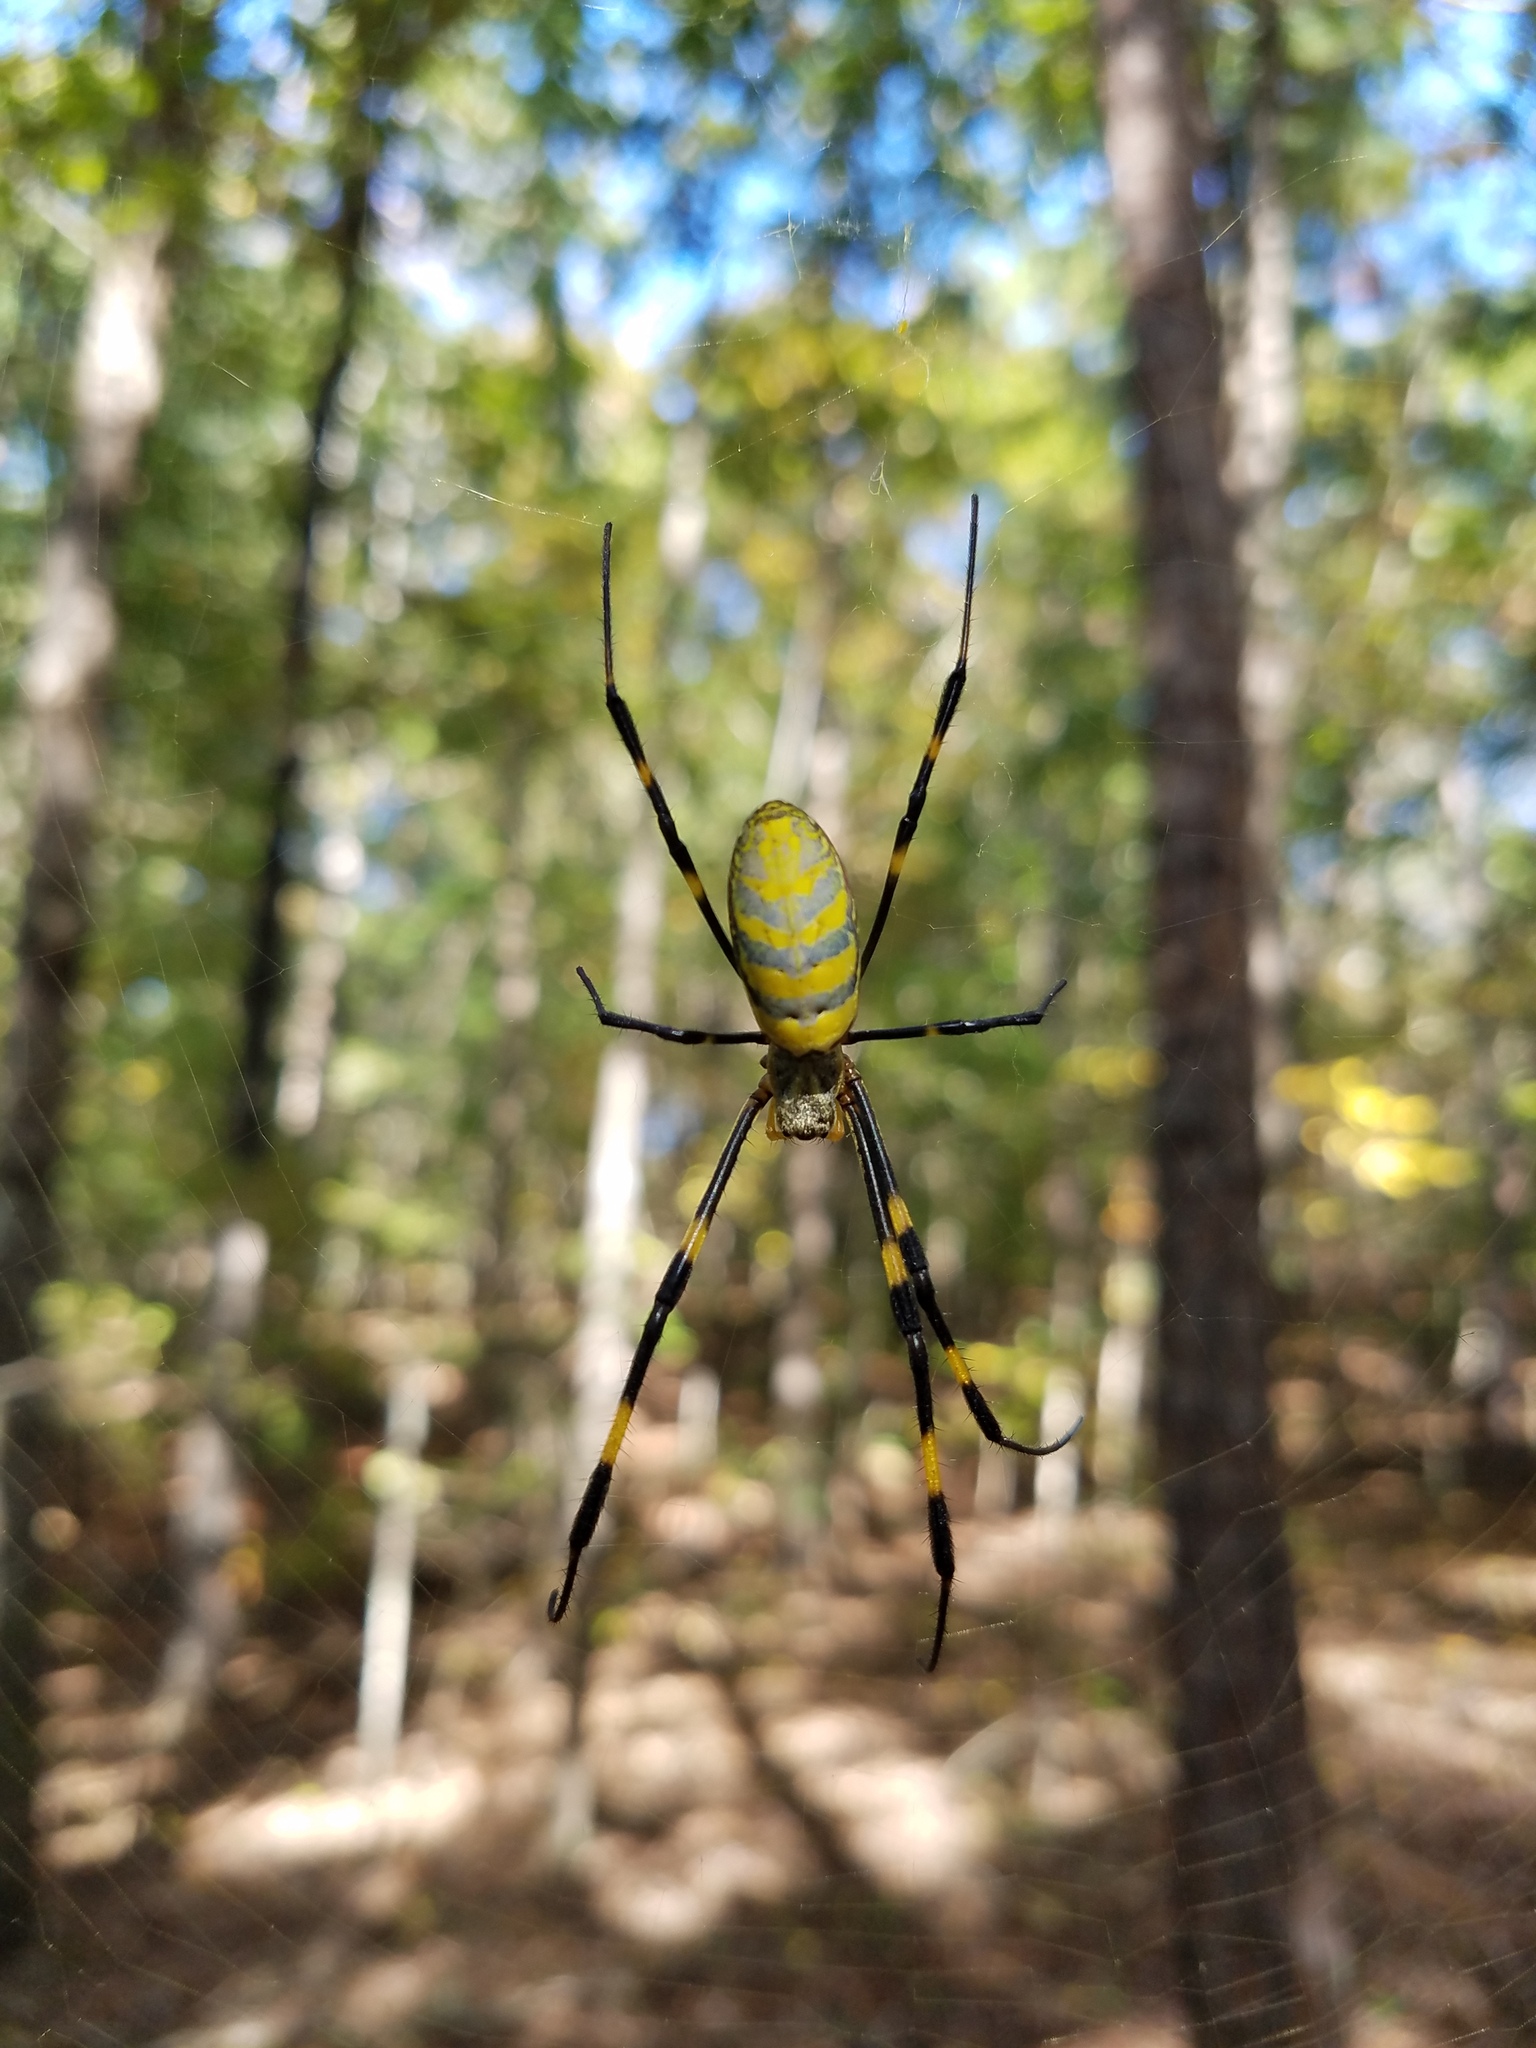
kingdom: Animalia
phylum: Arthropoda
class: Arachnida
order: Araneae
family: Araneidae
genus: Trichonephila
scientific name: Trichonephila clavata
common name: Jorō spider
